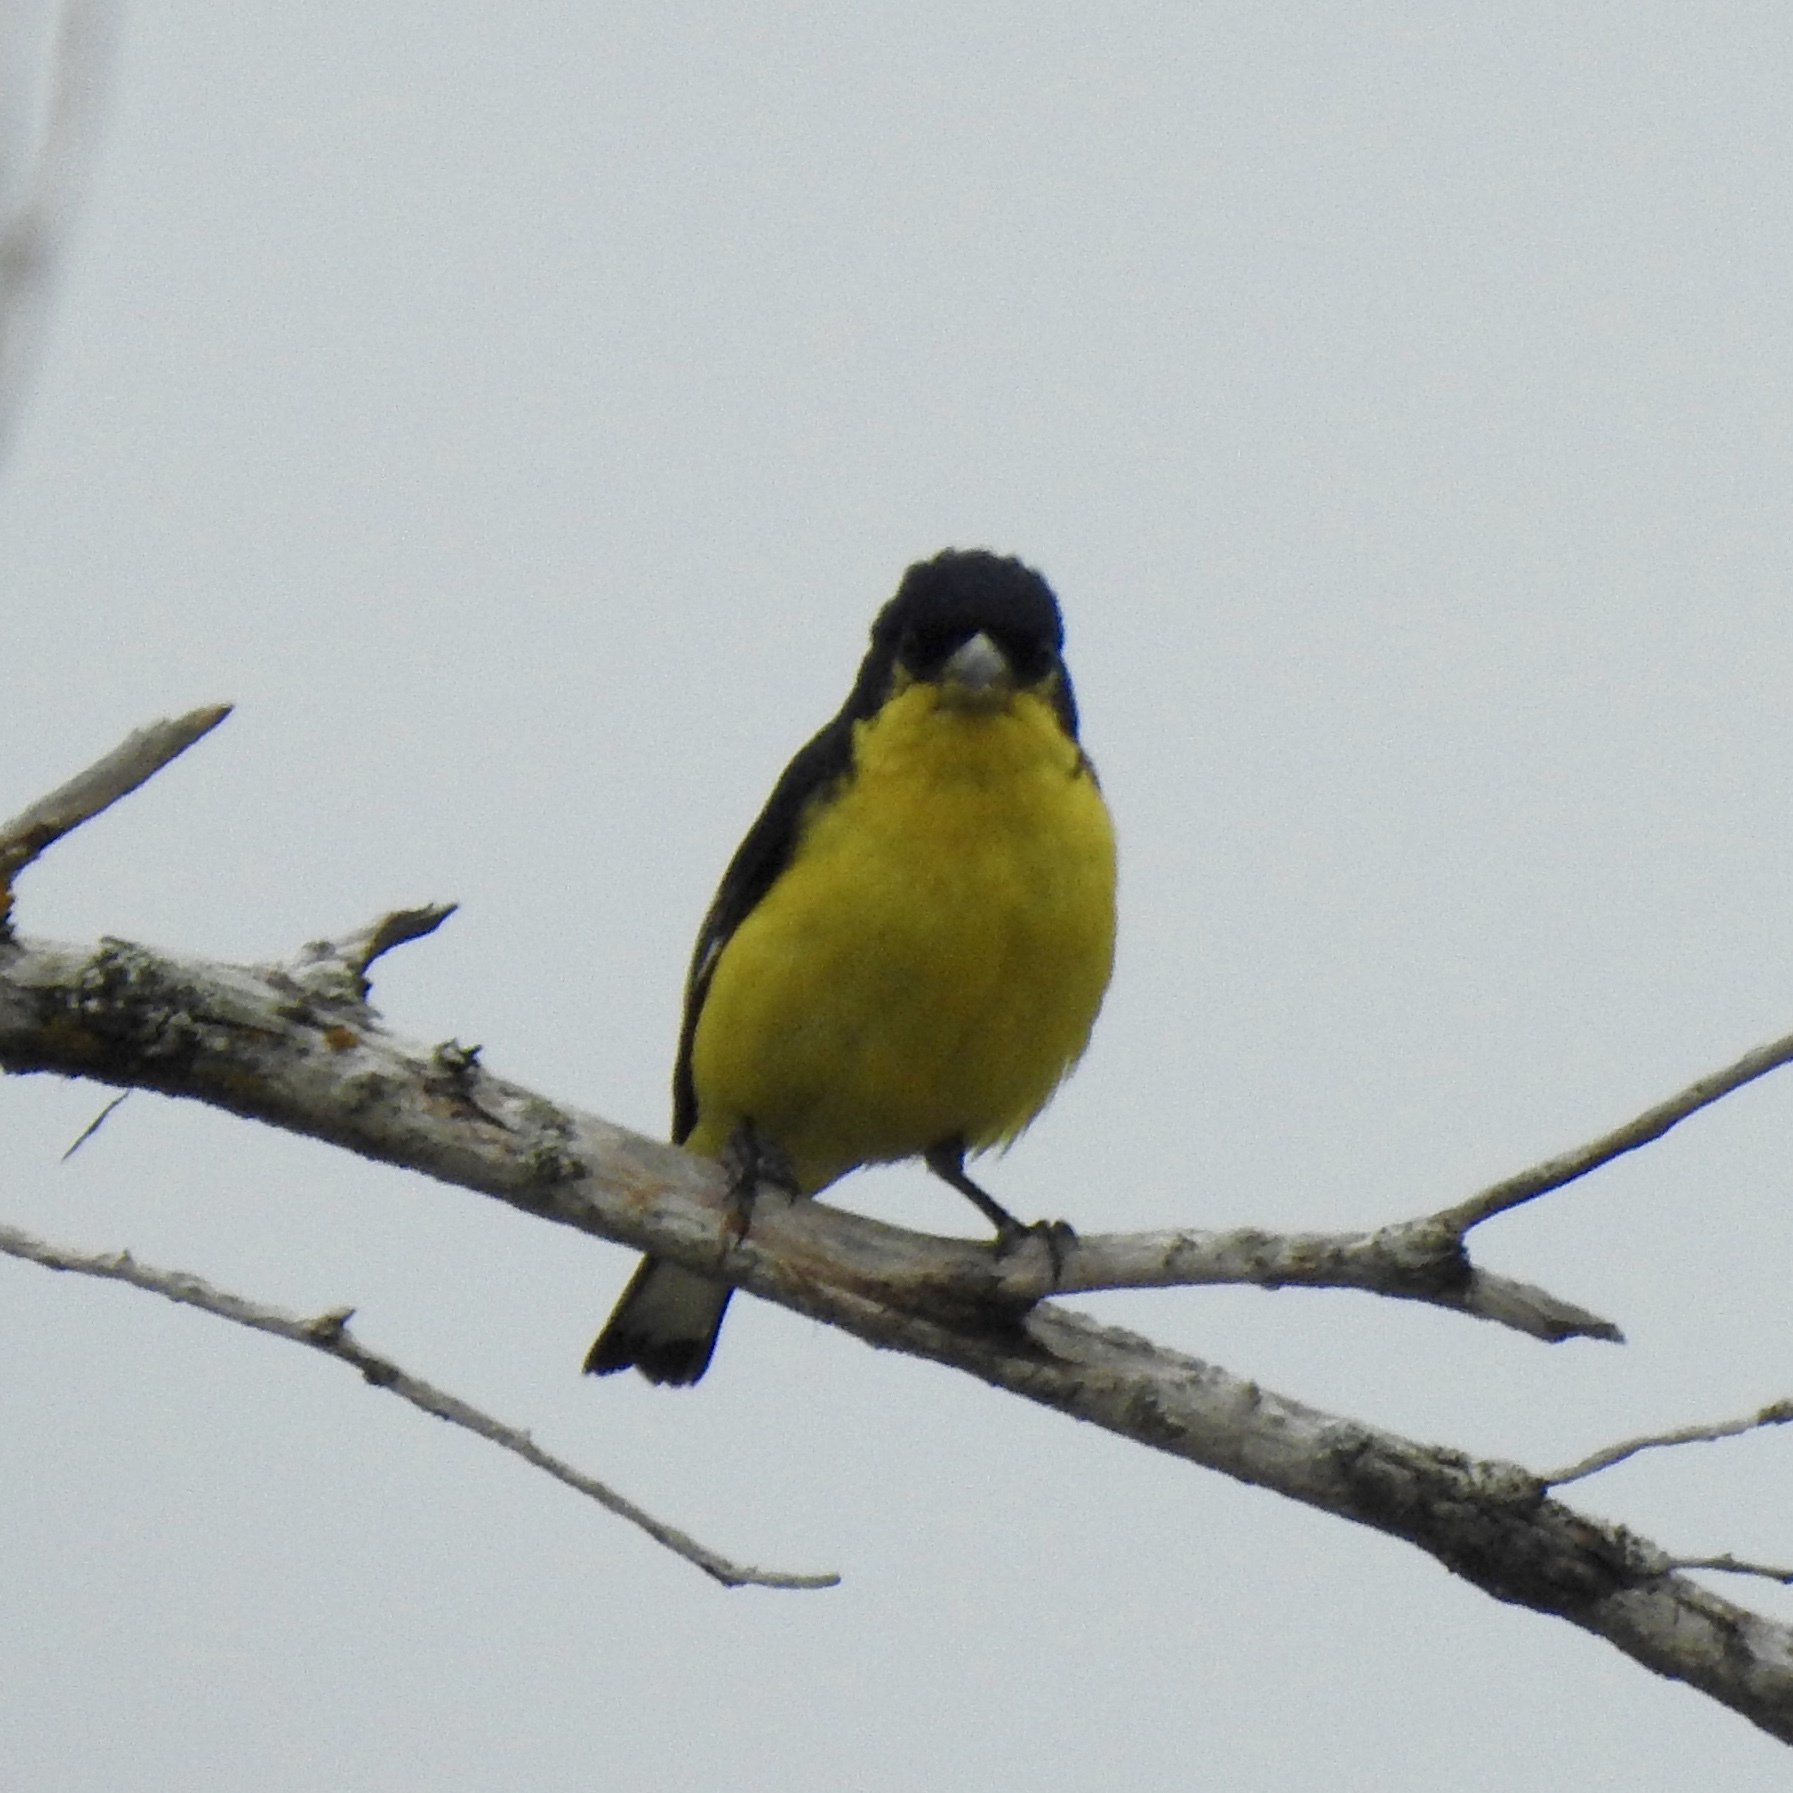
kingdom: Animalia
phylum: Chordata
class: Aves
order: Passeriformes
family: Fringillidae
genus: Spinus
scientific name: Spinus psaltria
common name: Lesser goldfinch
